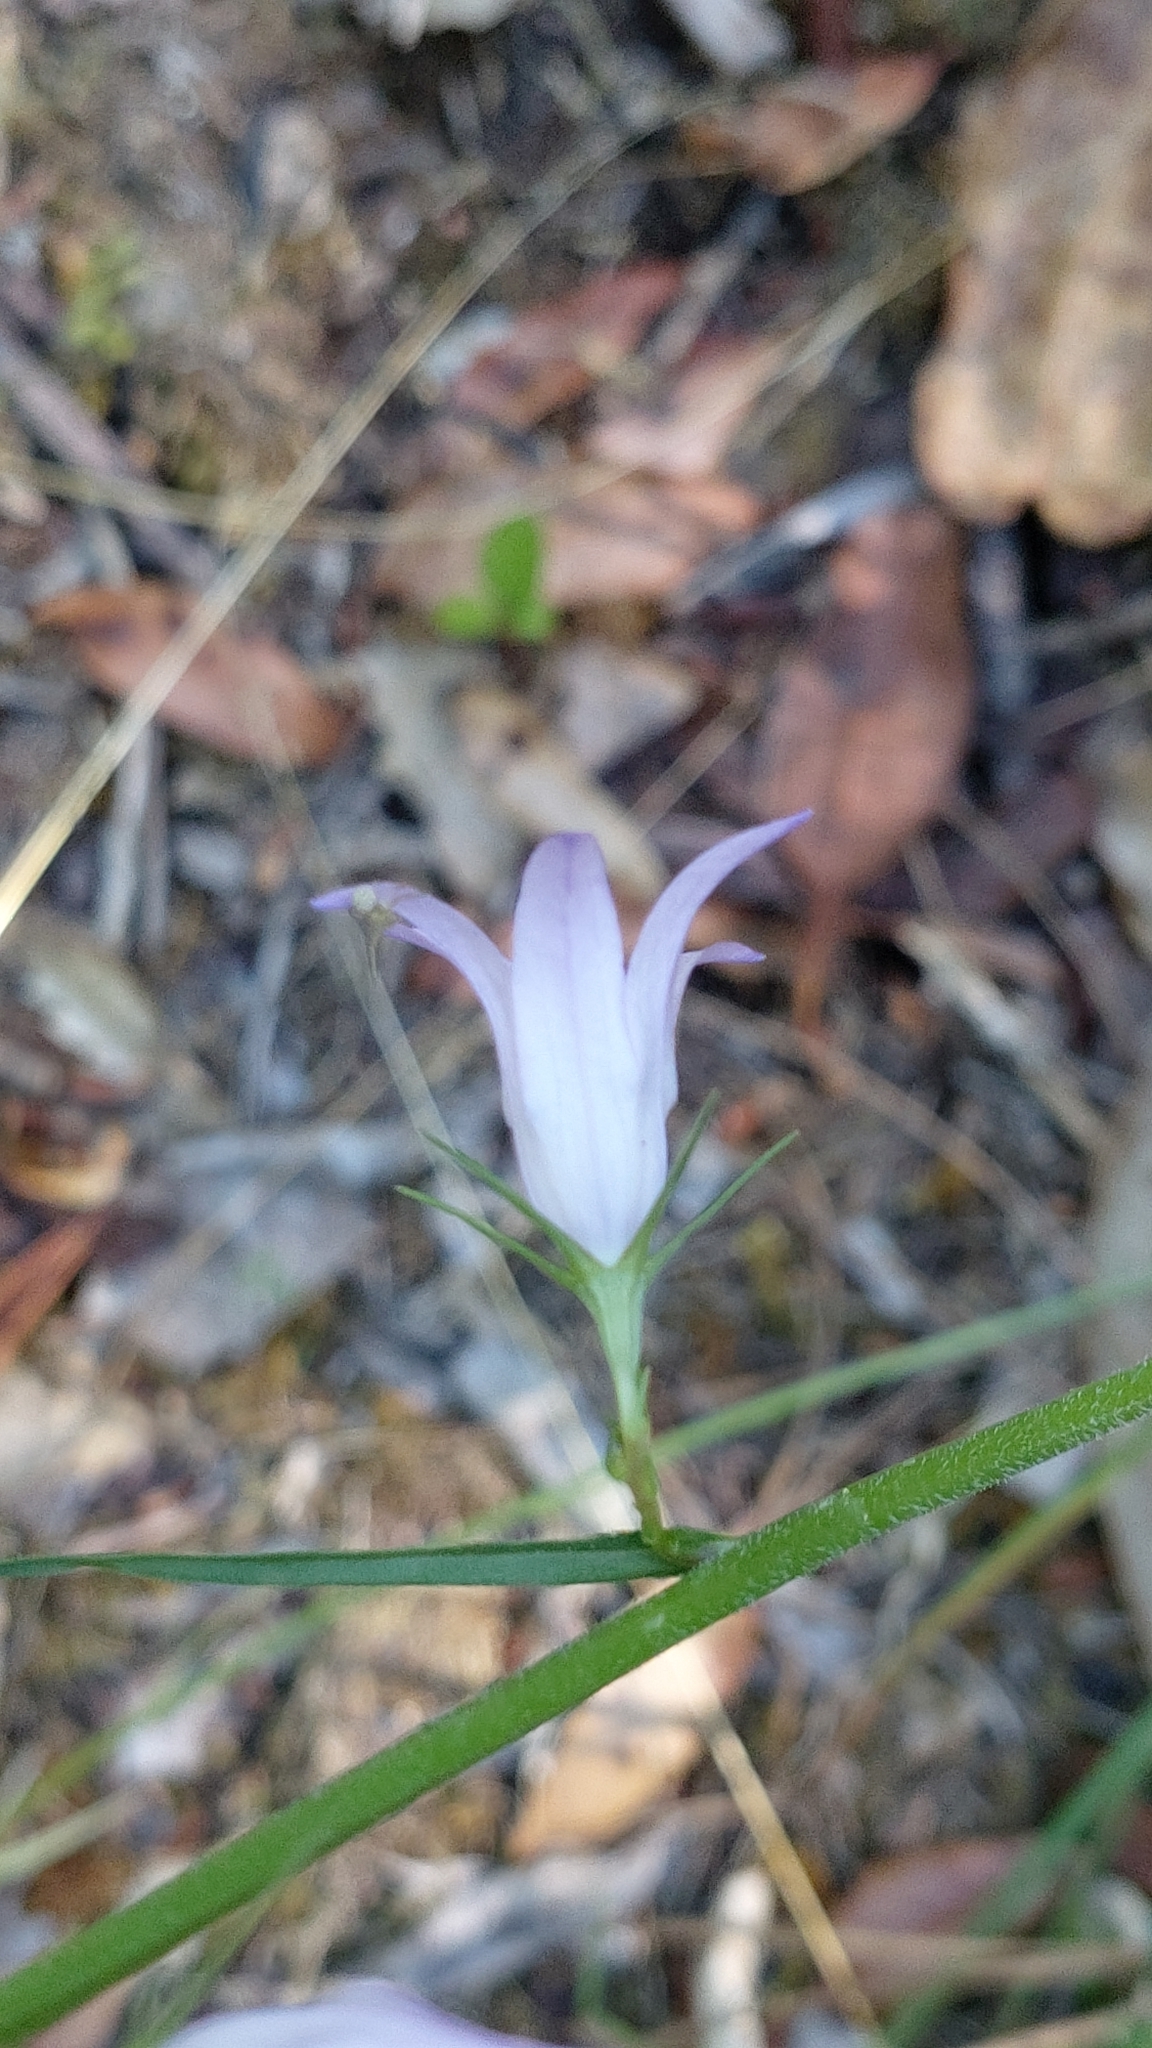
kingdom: Plantae
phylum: Tracheophyta
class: Magnoliopsida
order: Asterales
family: Campanulaceae
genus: Campanula
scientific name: Campanula rapunculus
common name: Rampion bellflower
